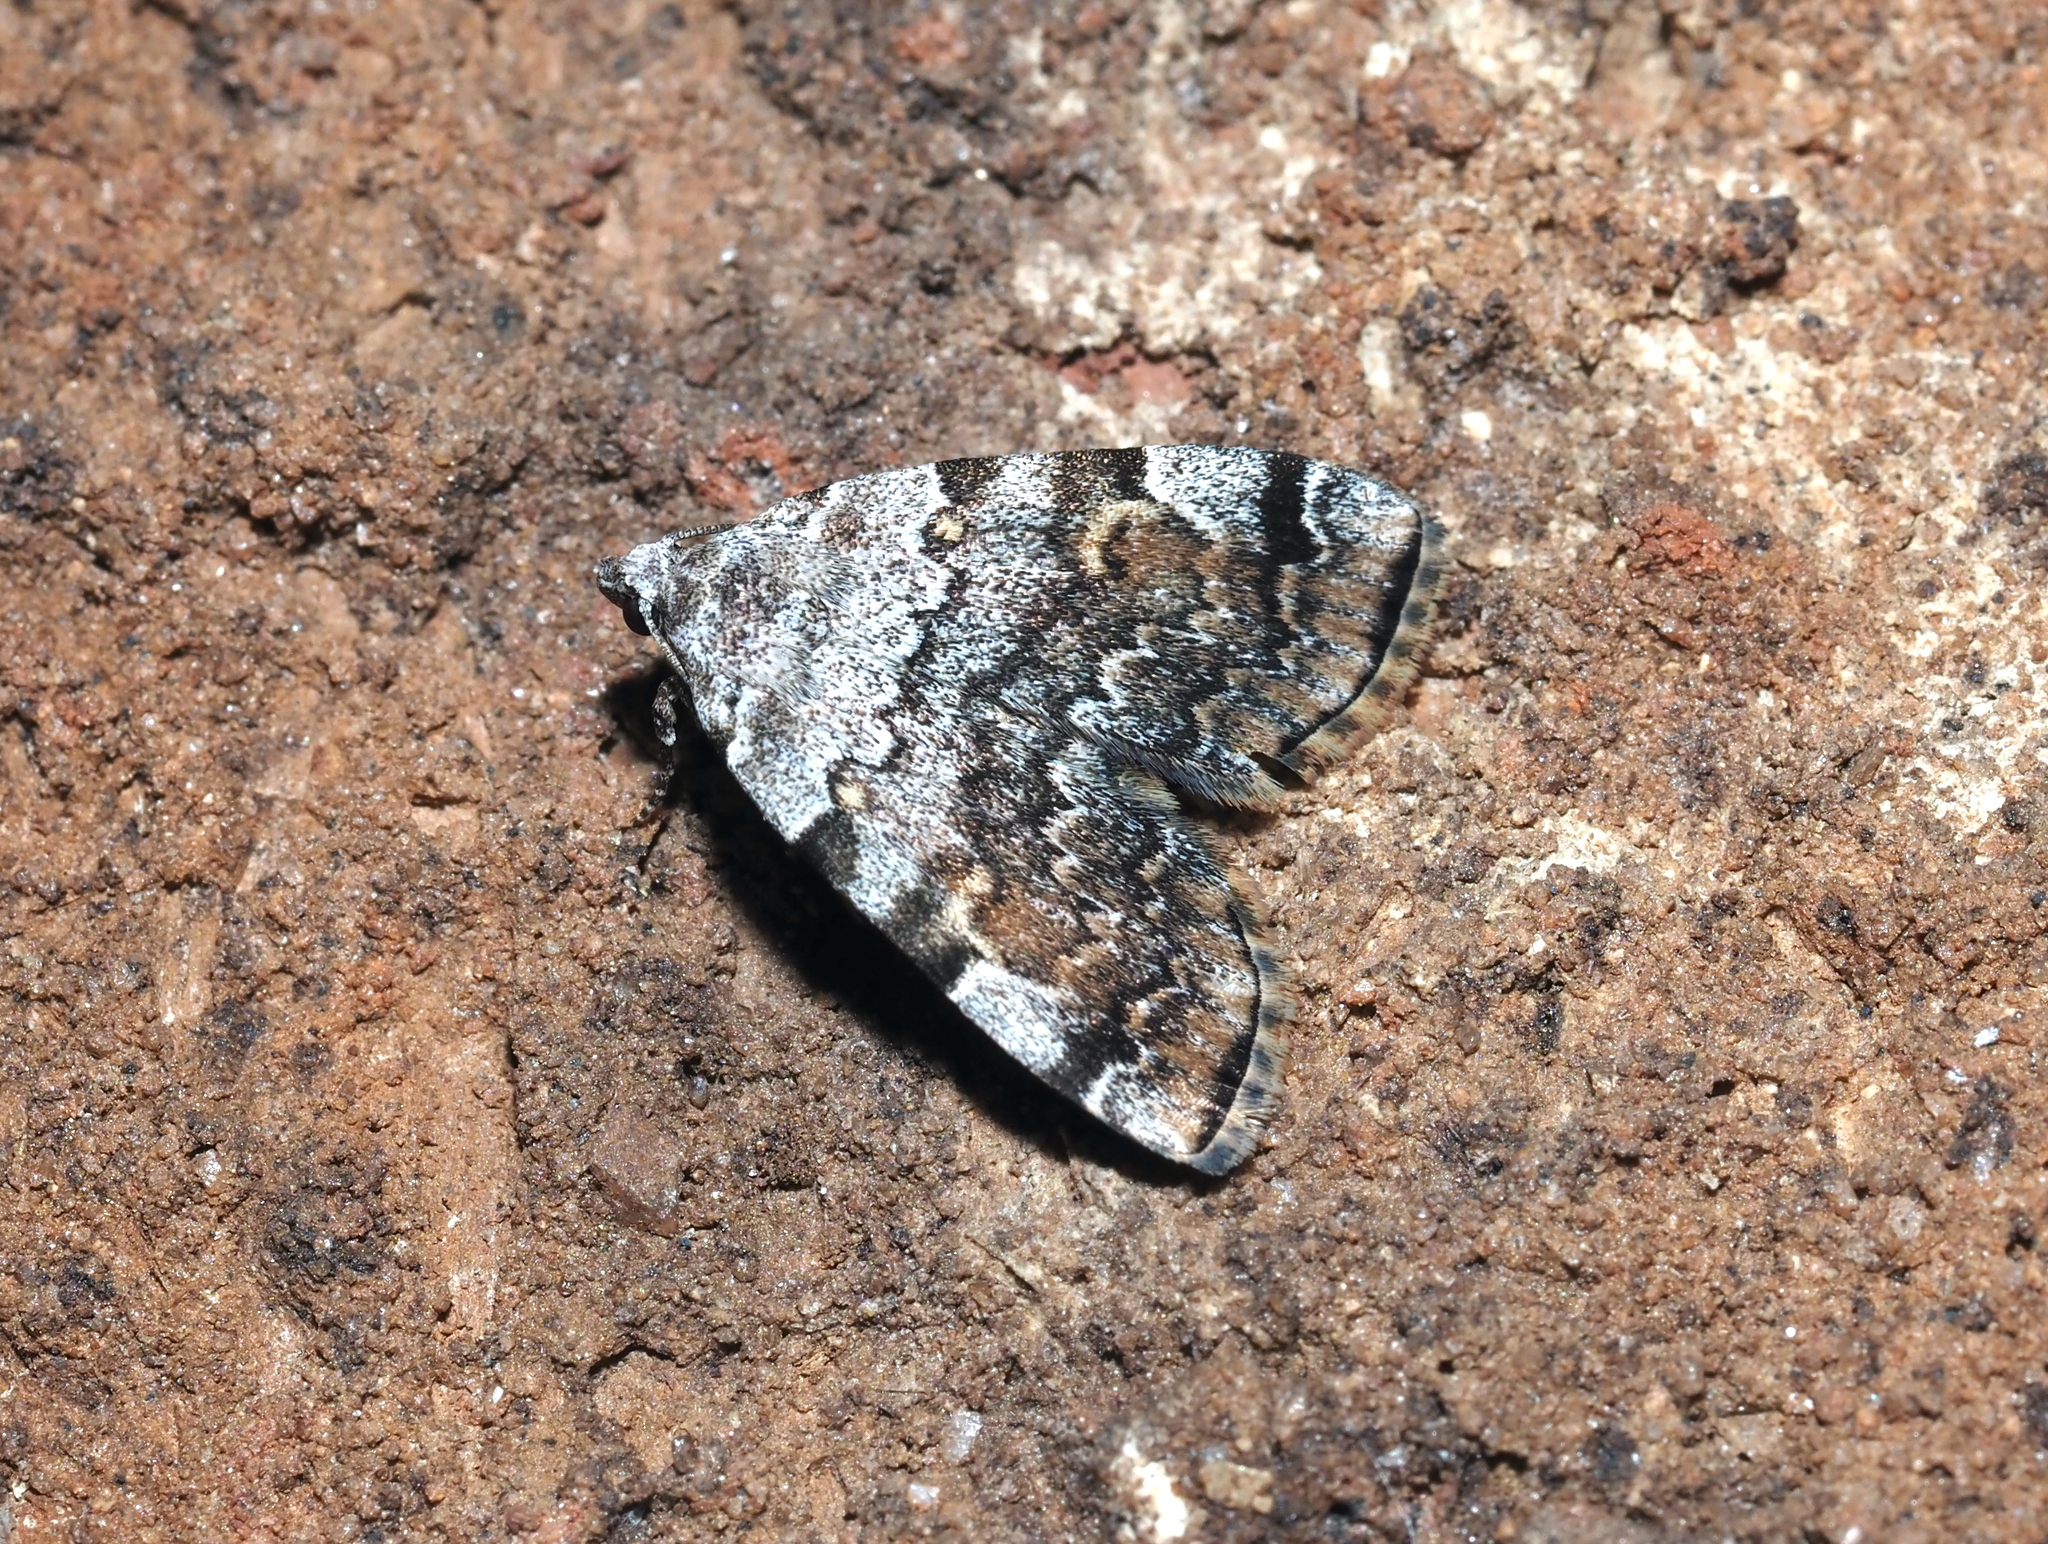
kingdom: Animalia
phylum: Arthropoda
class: Insecta
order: Lepidoptera
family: Erebidae
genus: Idia
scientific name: Idia americalis
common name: American idia moth
